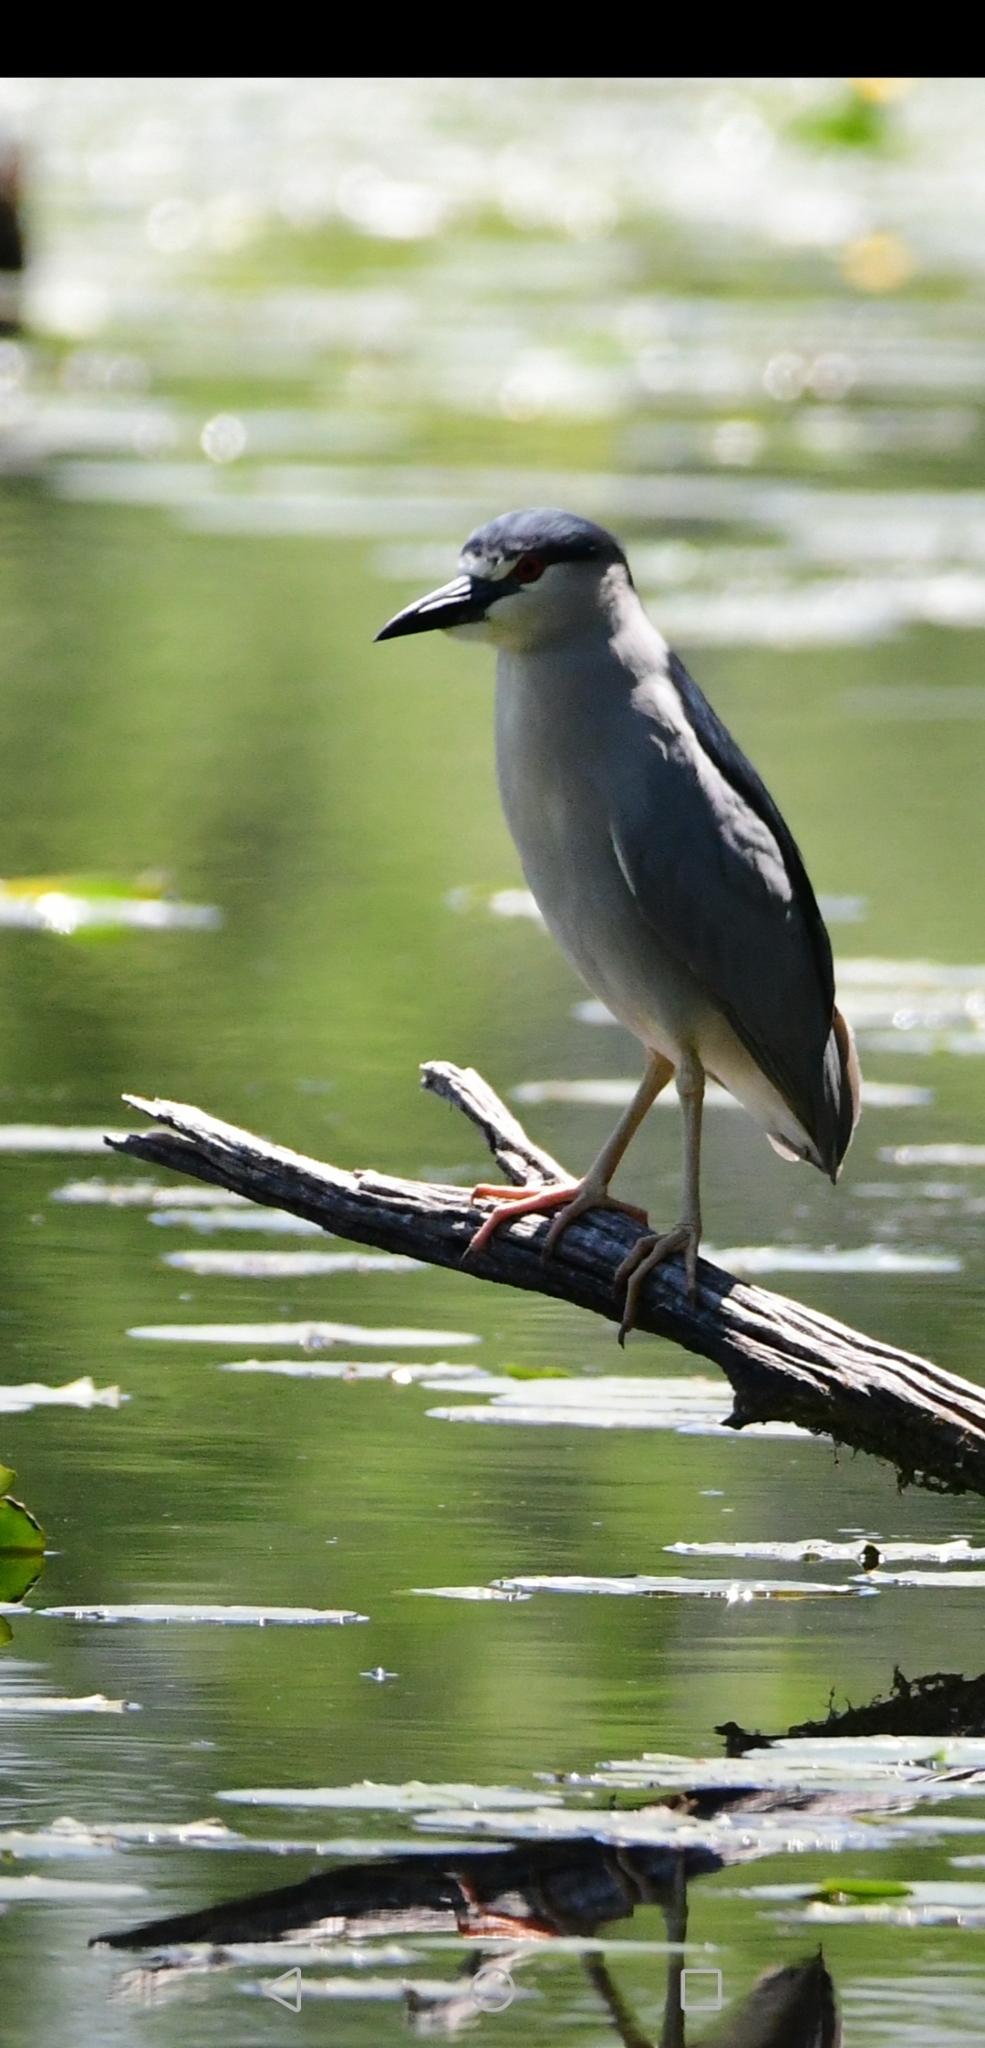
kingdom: Animalia
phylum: Chordata
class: Aves
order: Pelecaniformes
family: Ardeidae
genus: Nycticorax
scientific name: Nycticorax nycticorax
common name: Black-crowned night heron
